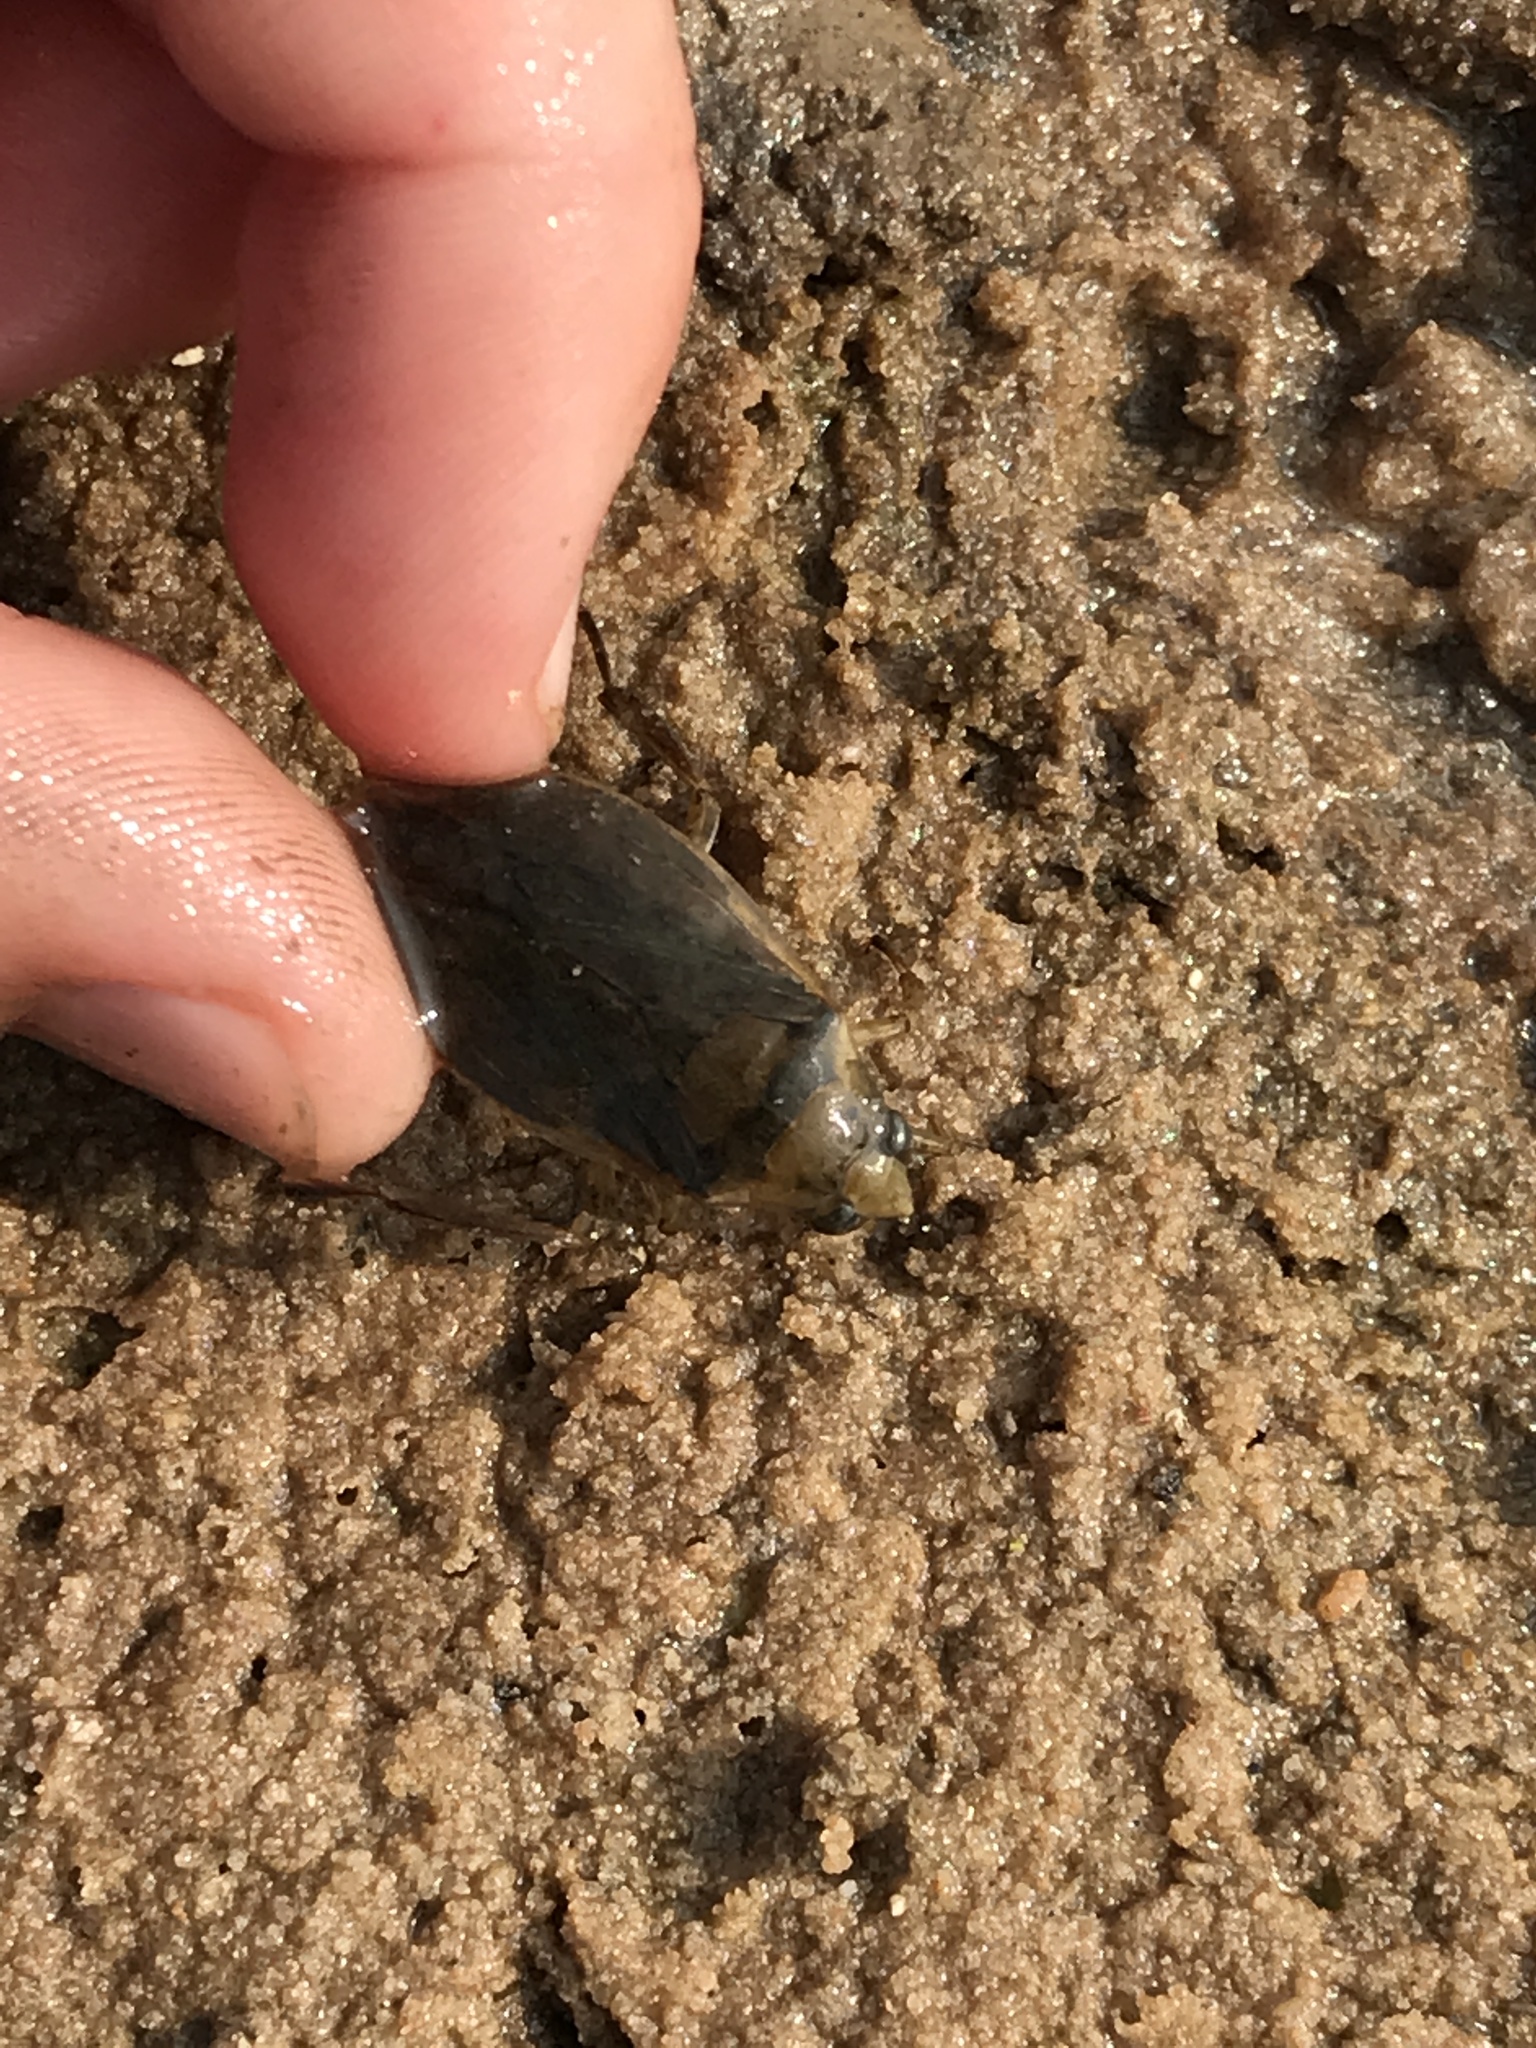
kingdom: Animalia
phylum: Arthropoda
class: Insecta
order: Hemiptera
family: Belostomatidae
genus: Belostoma
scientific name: Belostoma
